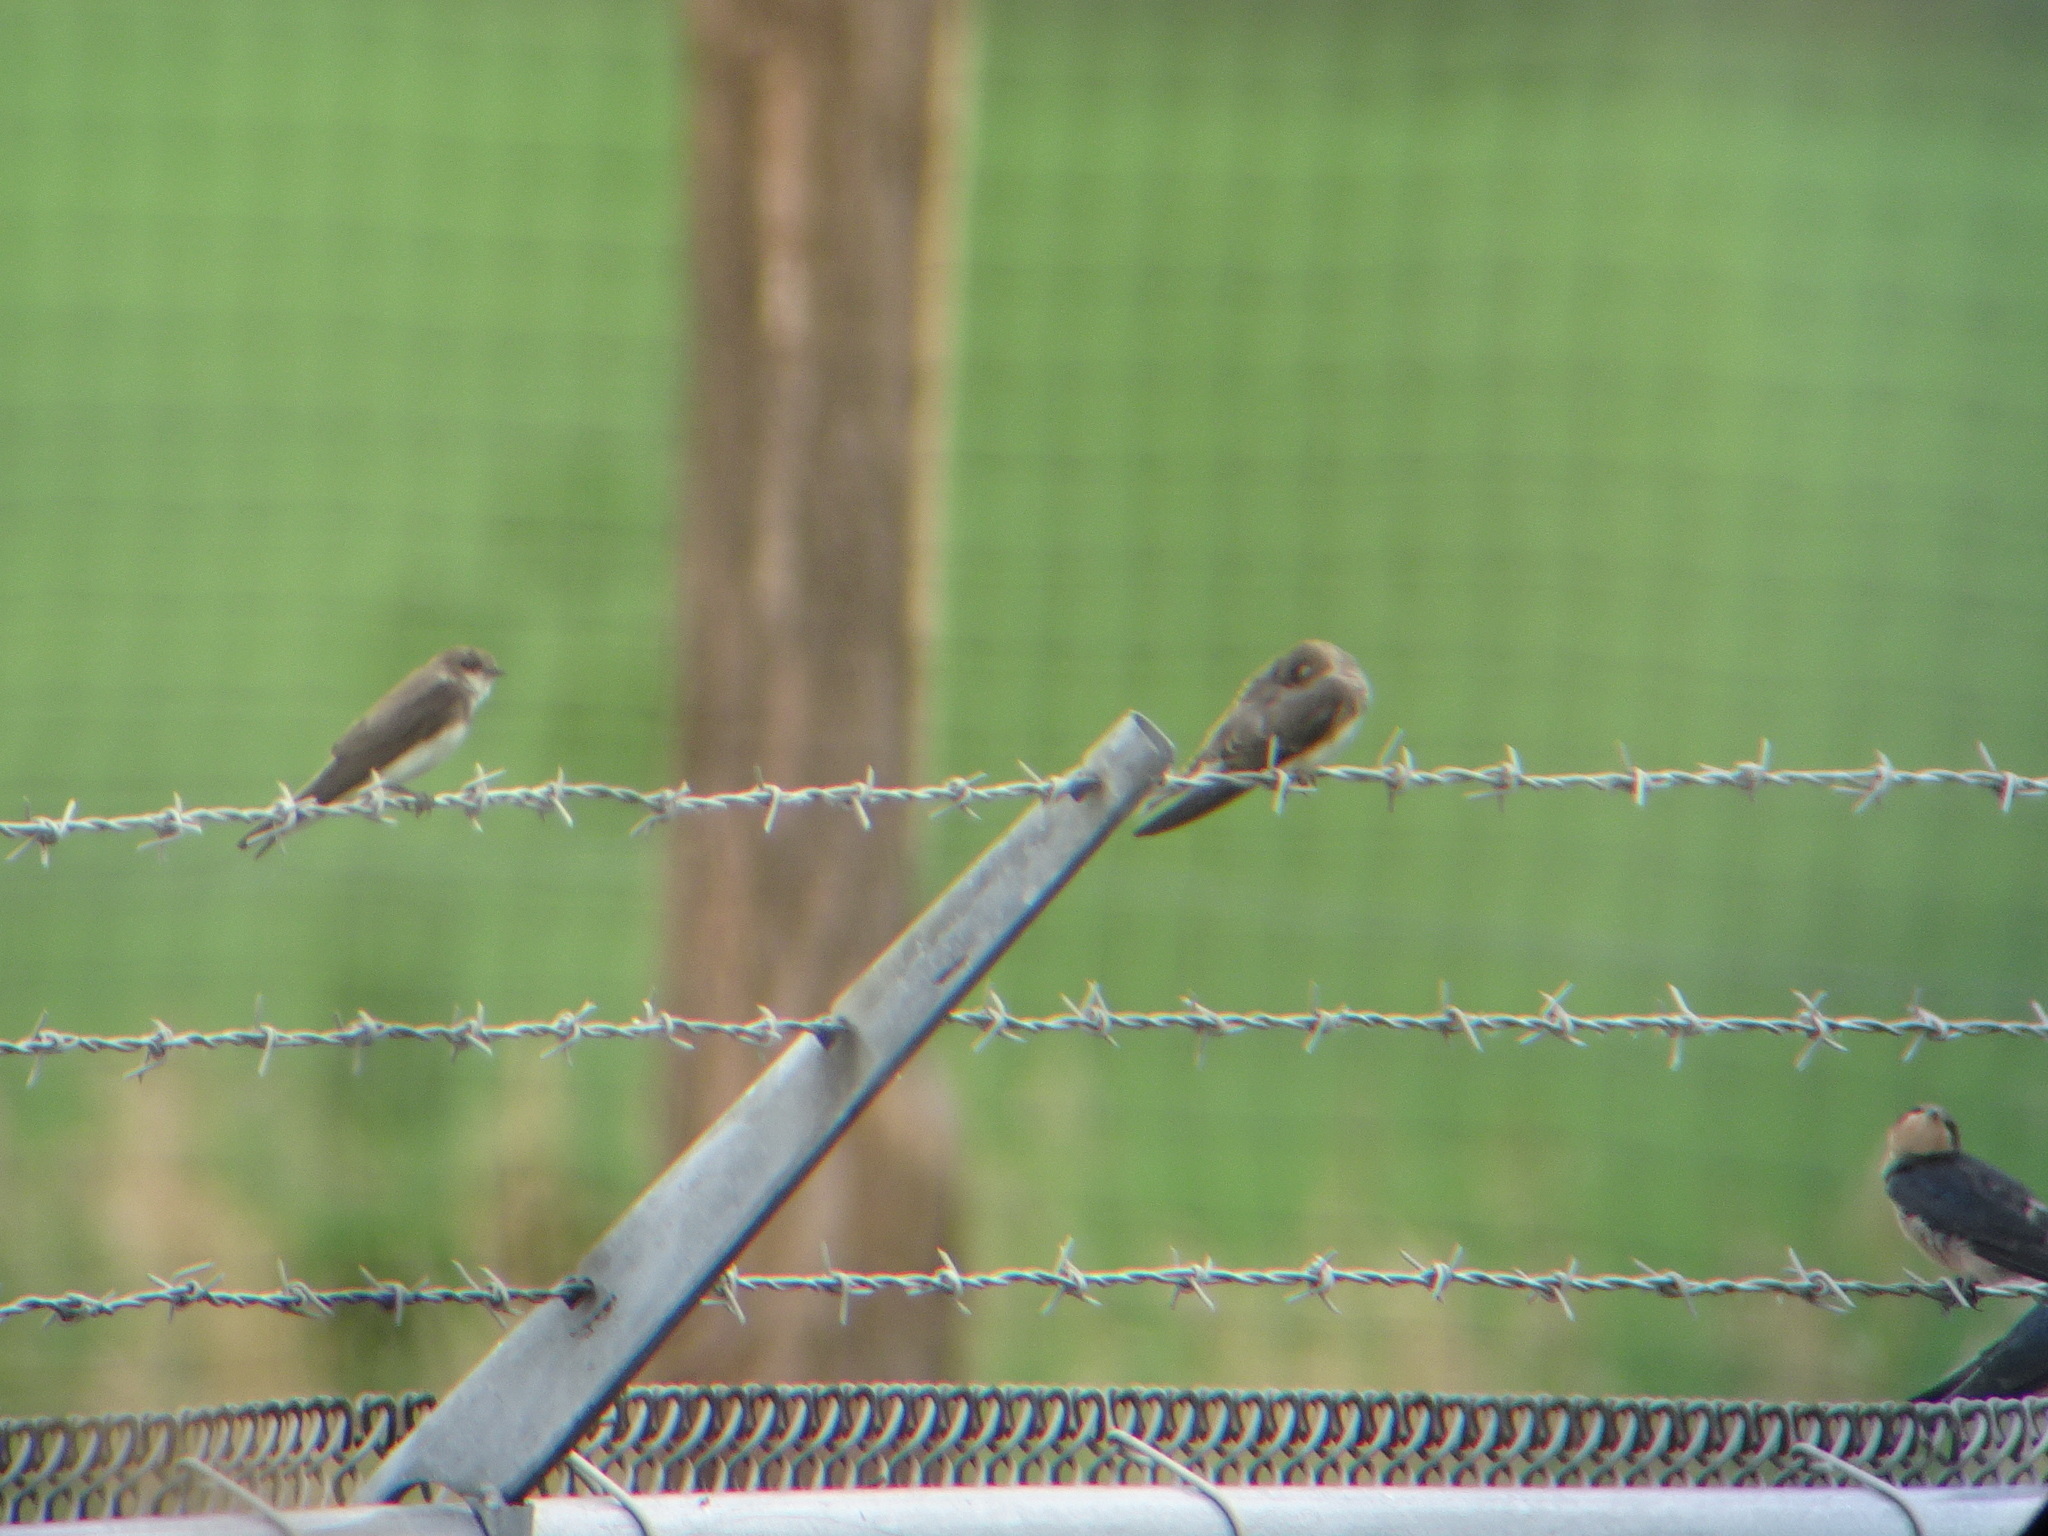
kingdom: Animalia
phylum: Chordata
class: Aves
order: Passeriformes
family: Hirundinidae
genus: Riparia
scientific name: Riparia riparia
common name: Sand martin
